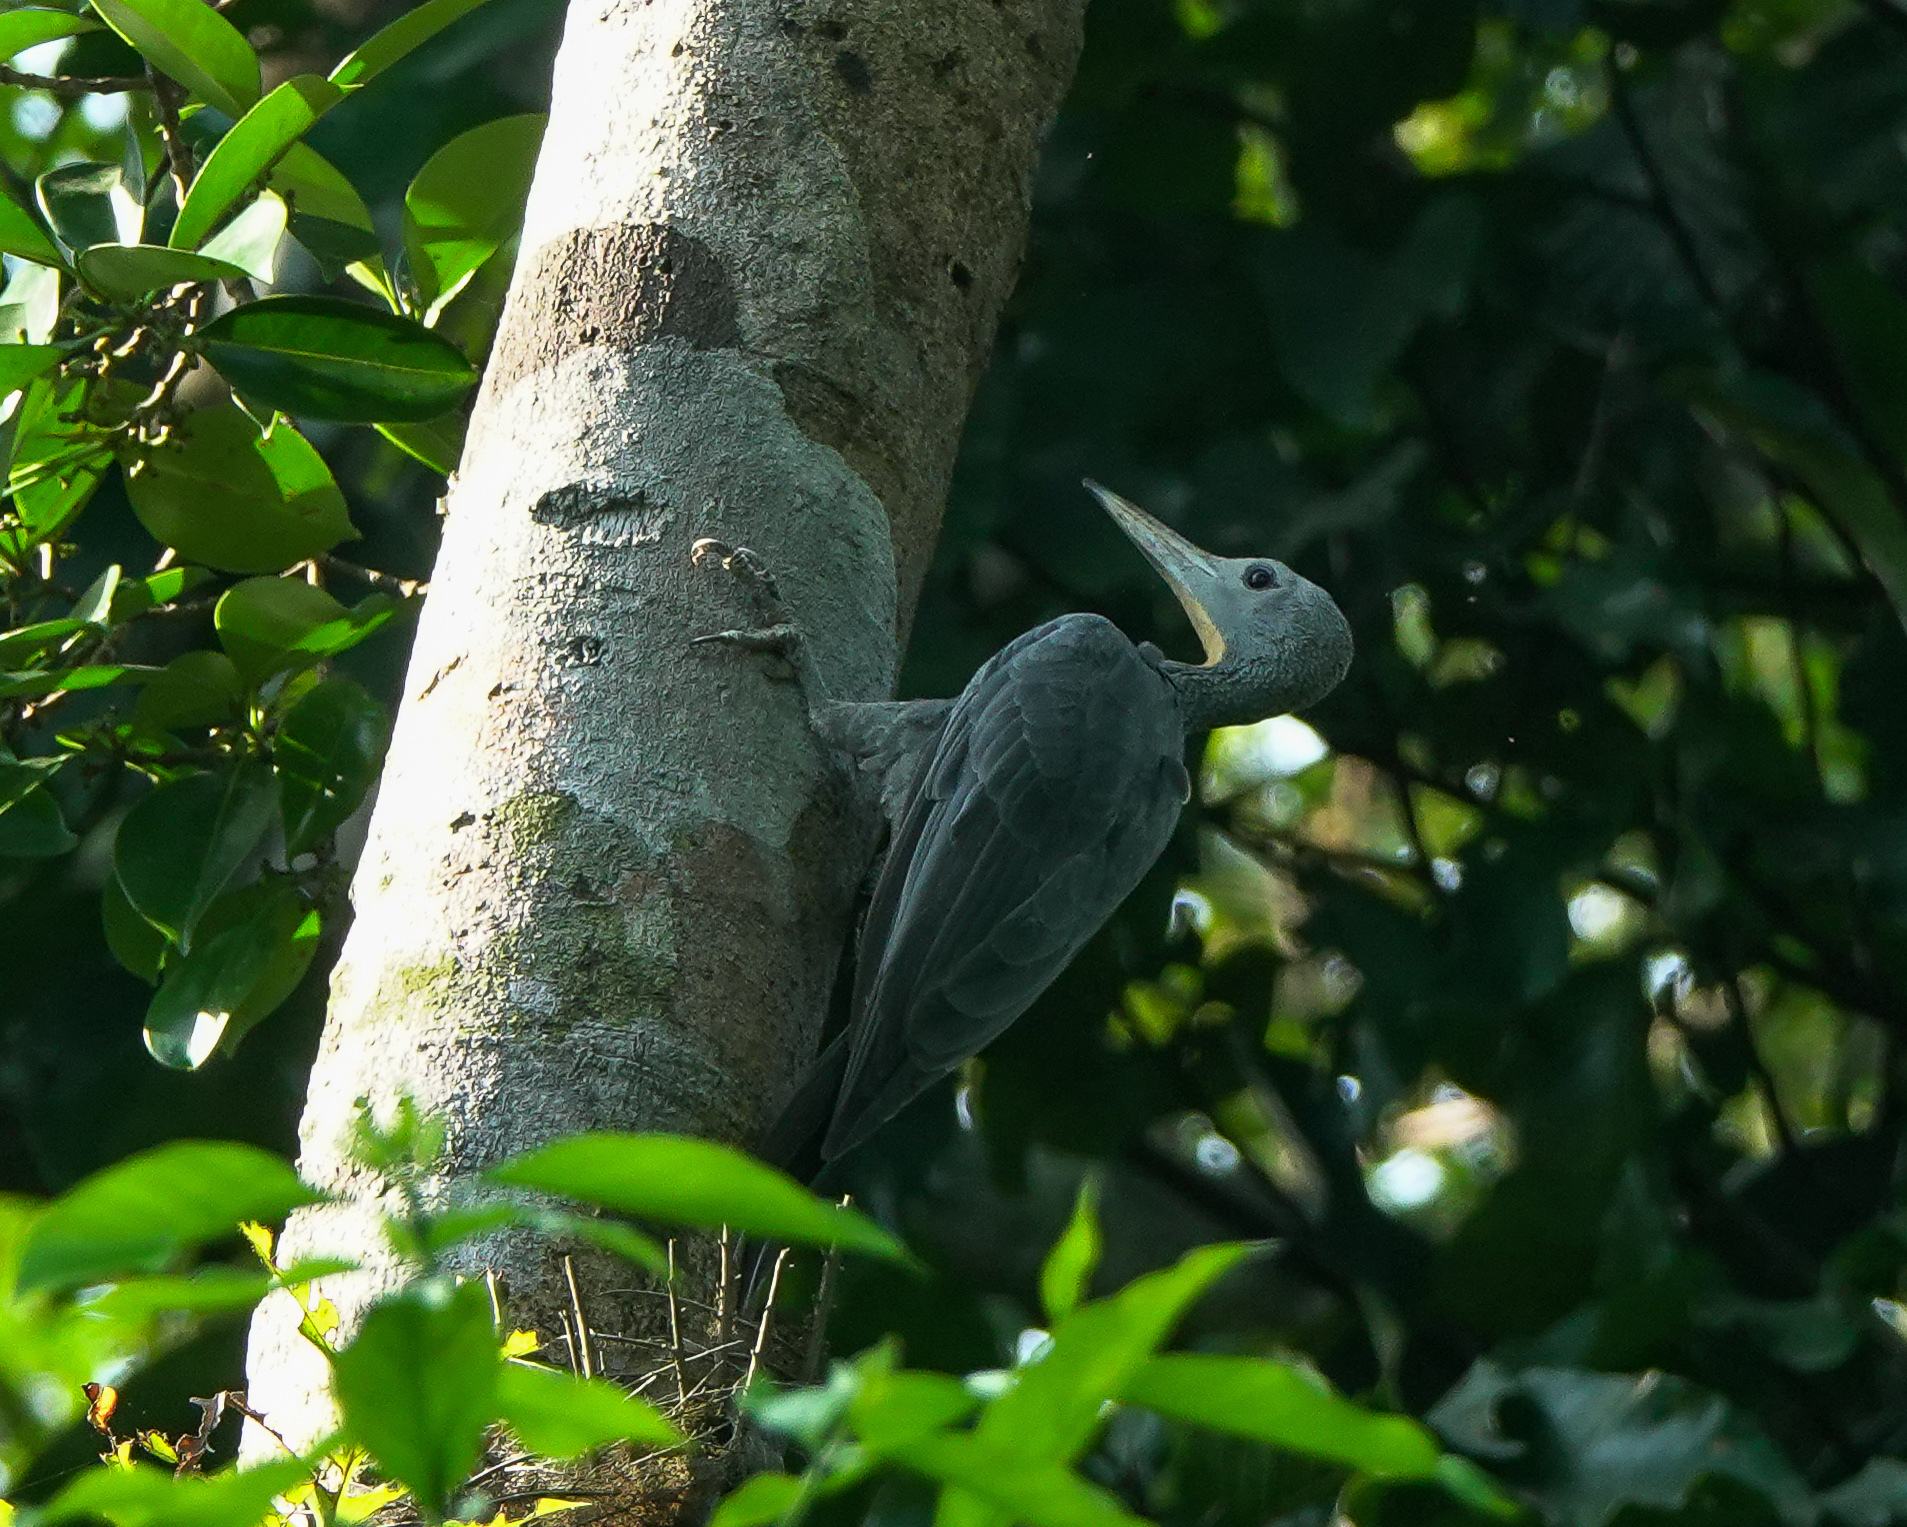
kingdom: Animalia
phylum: Chordata
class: Aves
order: Piciformes
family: Picidae
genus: Mulleripicus
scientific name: Mulleripicus pulverulentus
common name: Great slaty woodpecker
